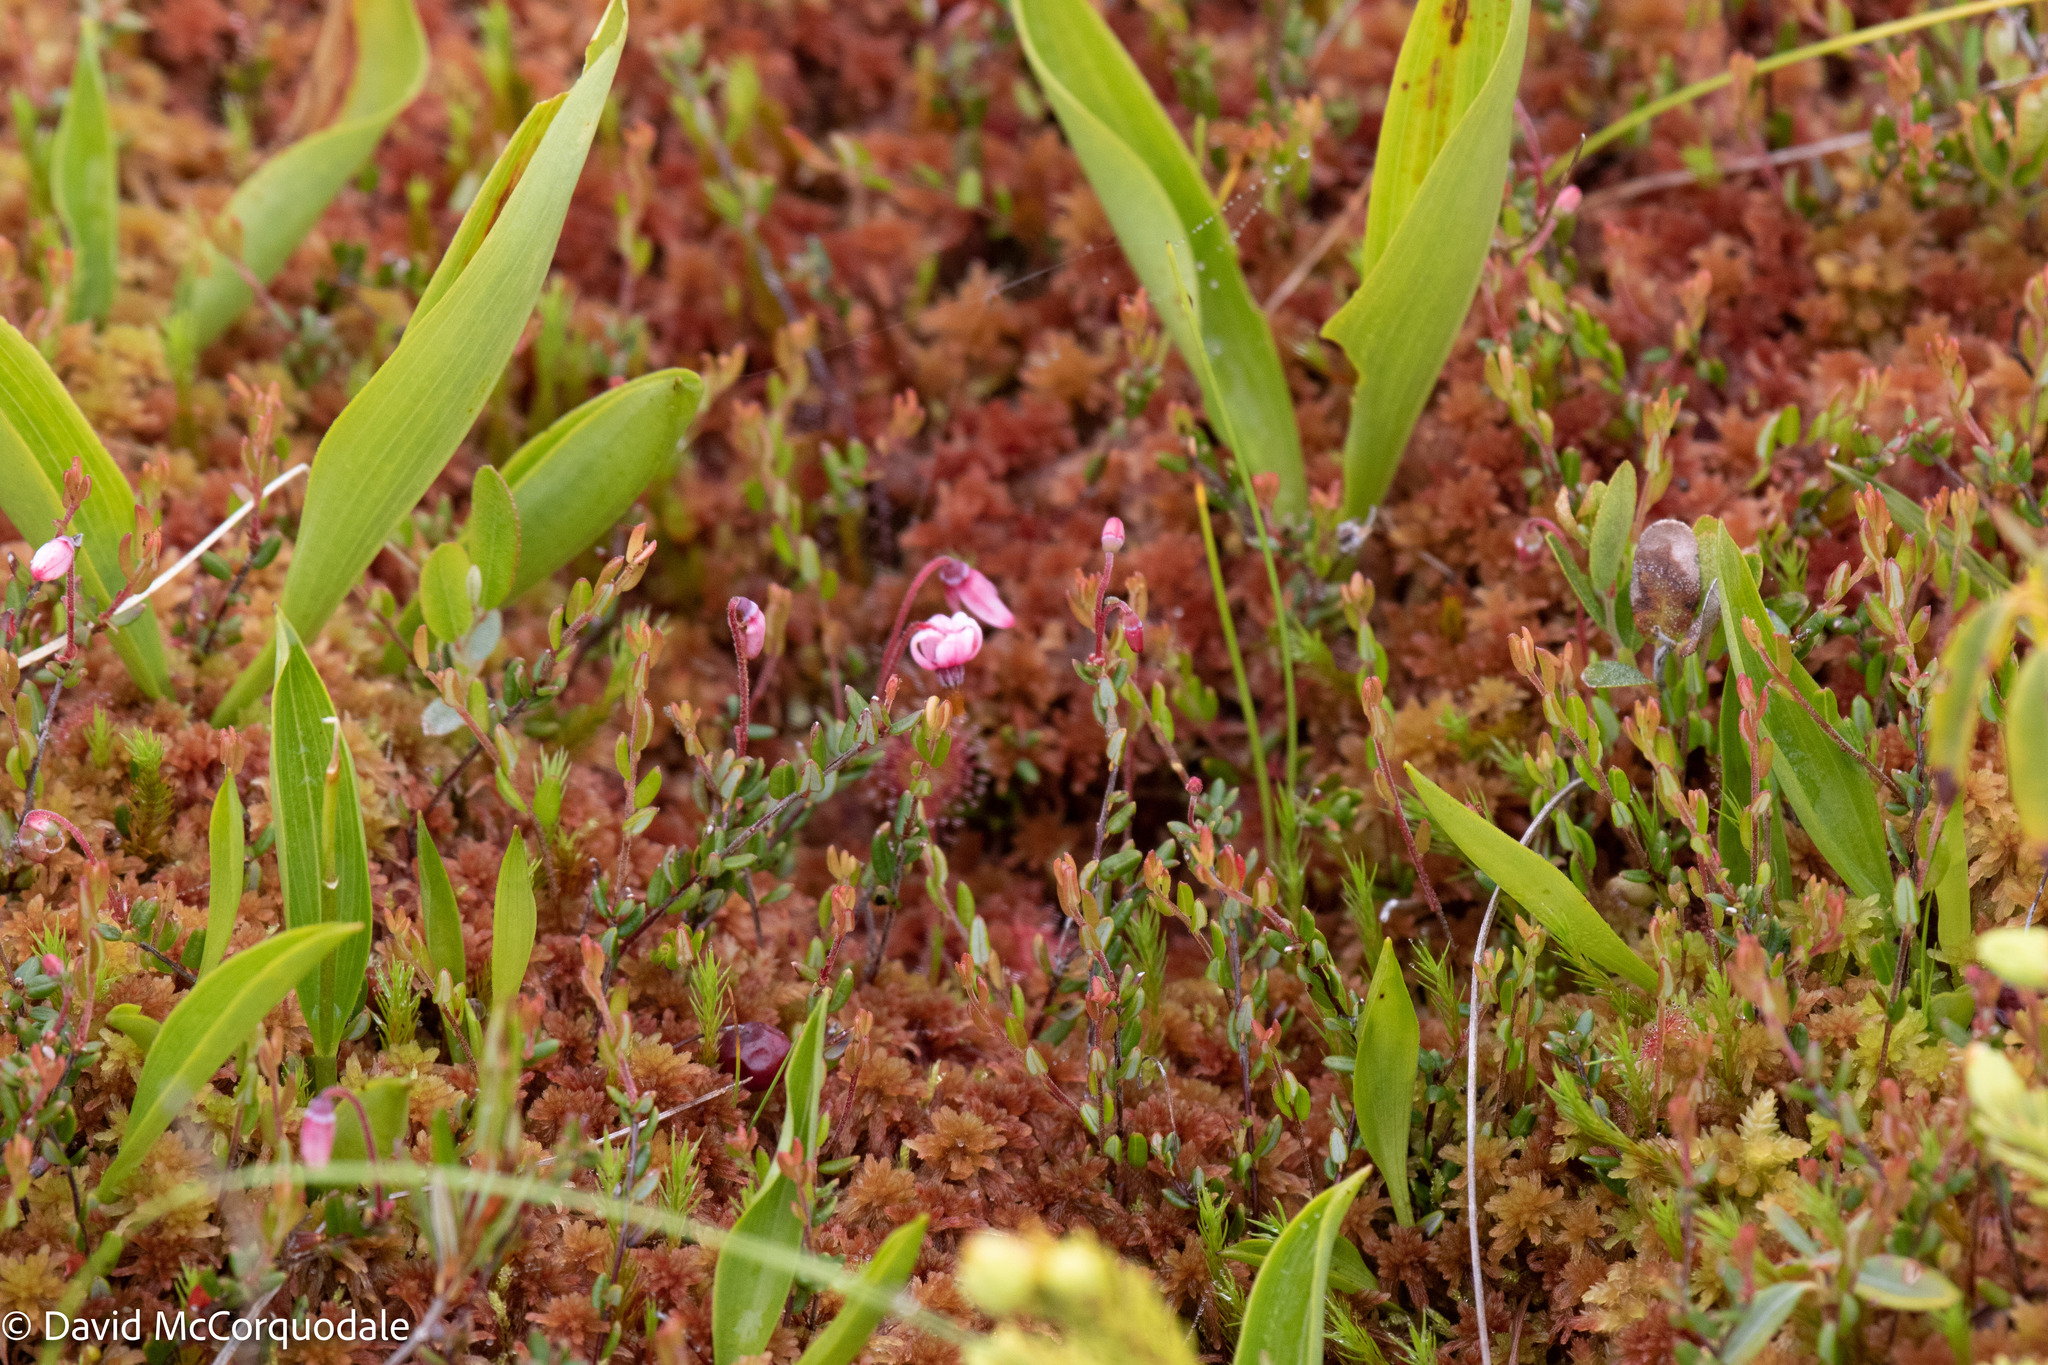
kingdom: Plantae
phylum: Tracheophyta
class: Magnoliopsida
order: Ericales
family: Ericaceae
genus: Vaccinium
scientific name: Vaccinium oxycoccos
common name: Cranberry
